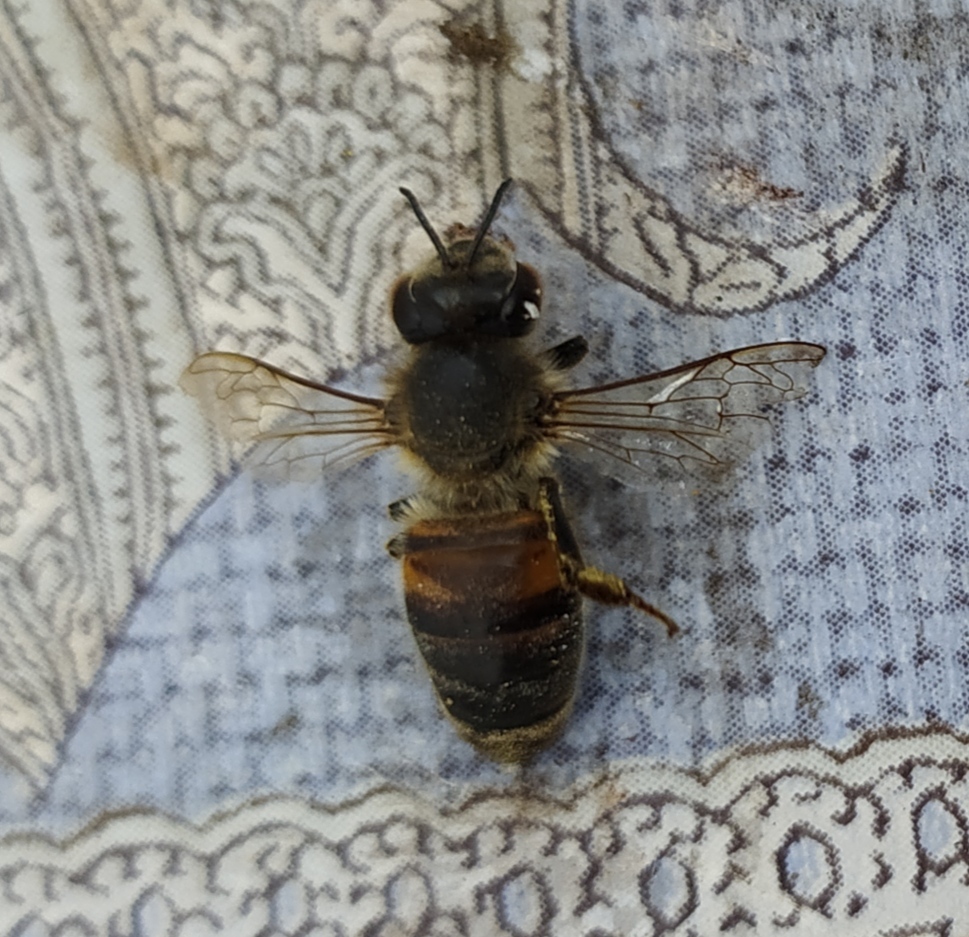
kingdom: Animalia
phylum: Arthropoda
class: Insecta
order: Hymenoptera
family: Apidae
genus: Apis
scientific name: Apis mellifera
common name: Honey bee
